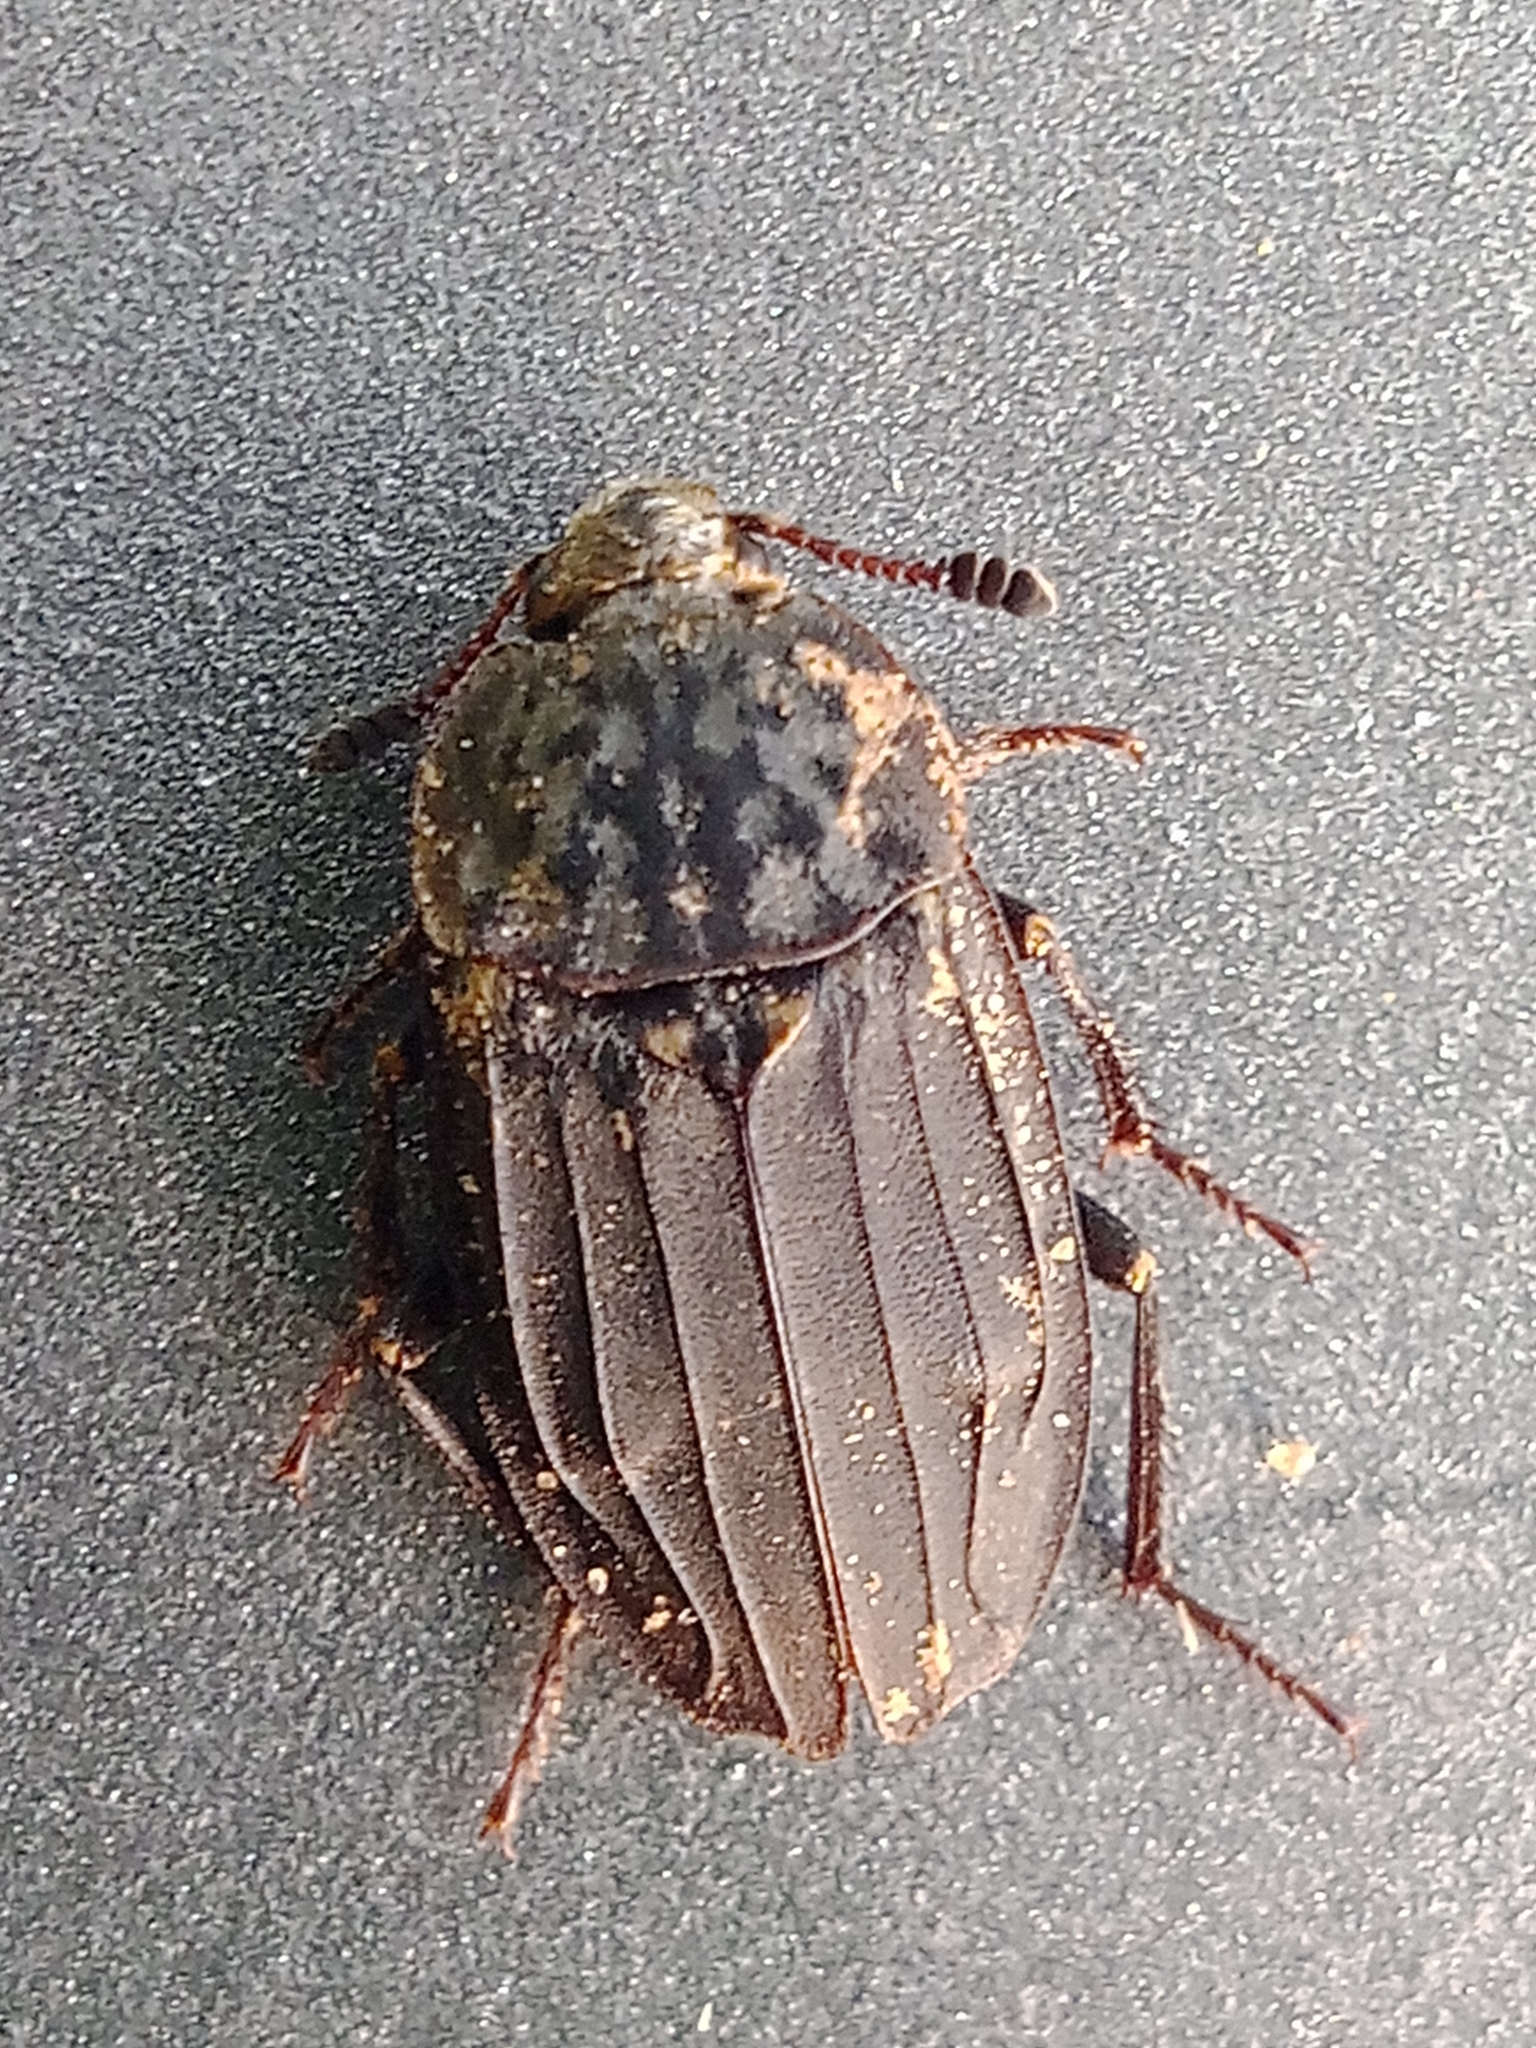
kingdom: Animalia
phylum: Arthropoda
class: Insecta
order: Coleoptera
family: Staphylinidae
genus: Thanatophilus
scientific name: Thanatophilus sinuatus
